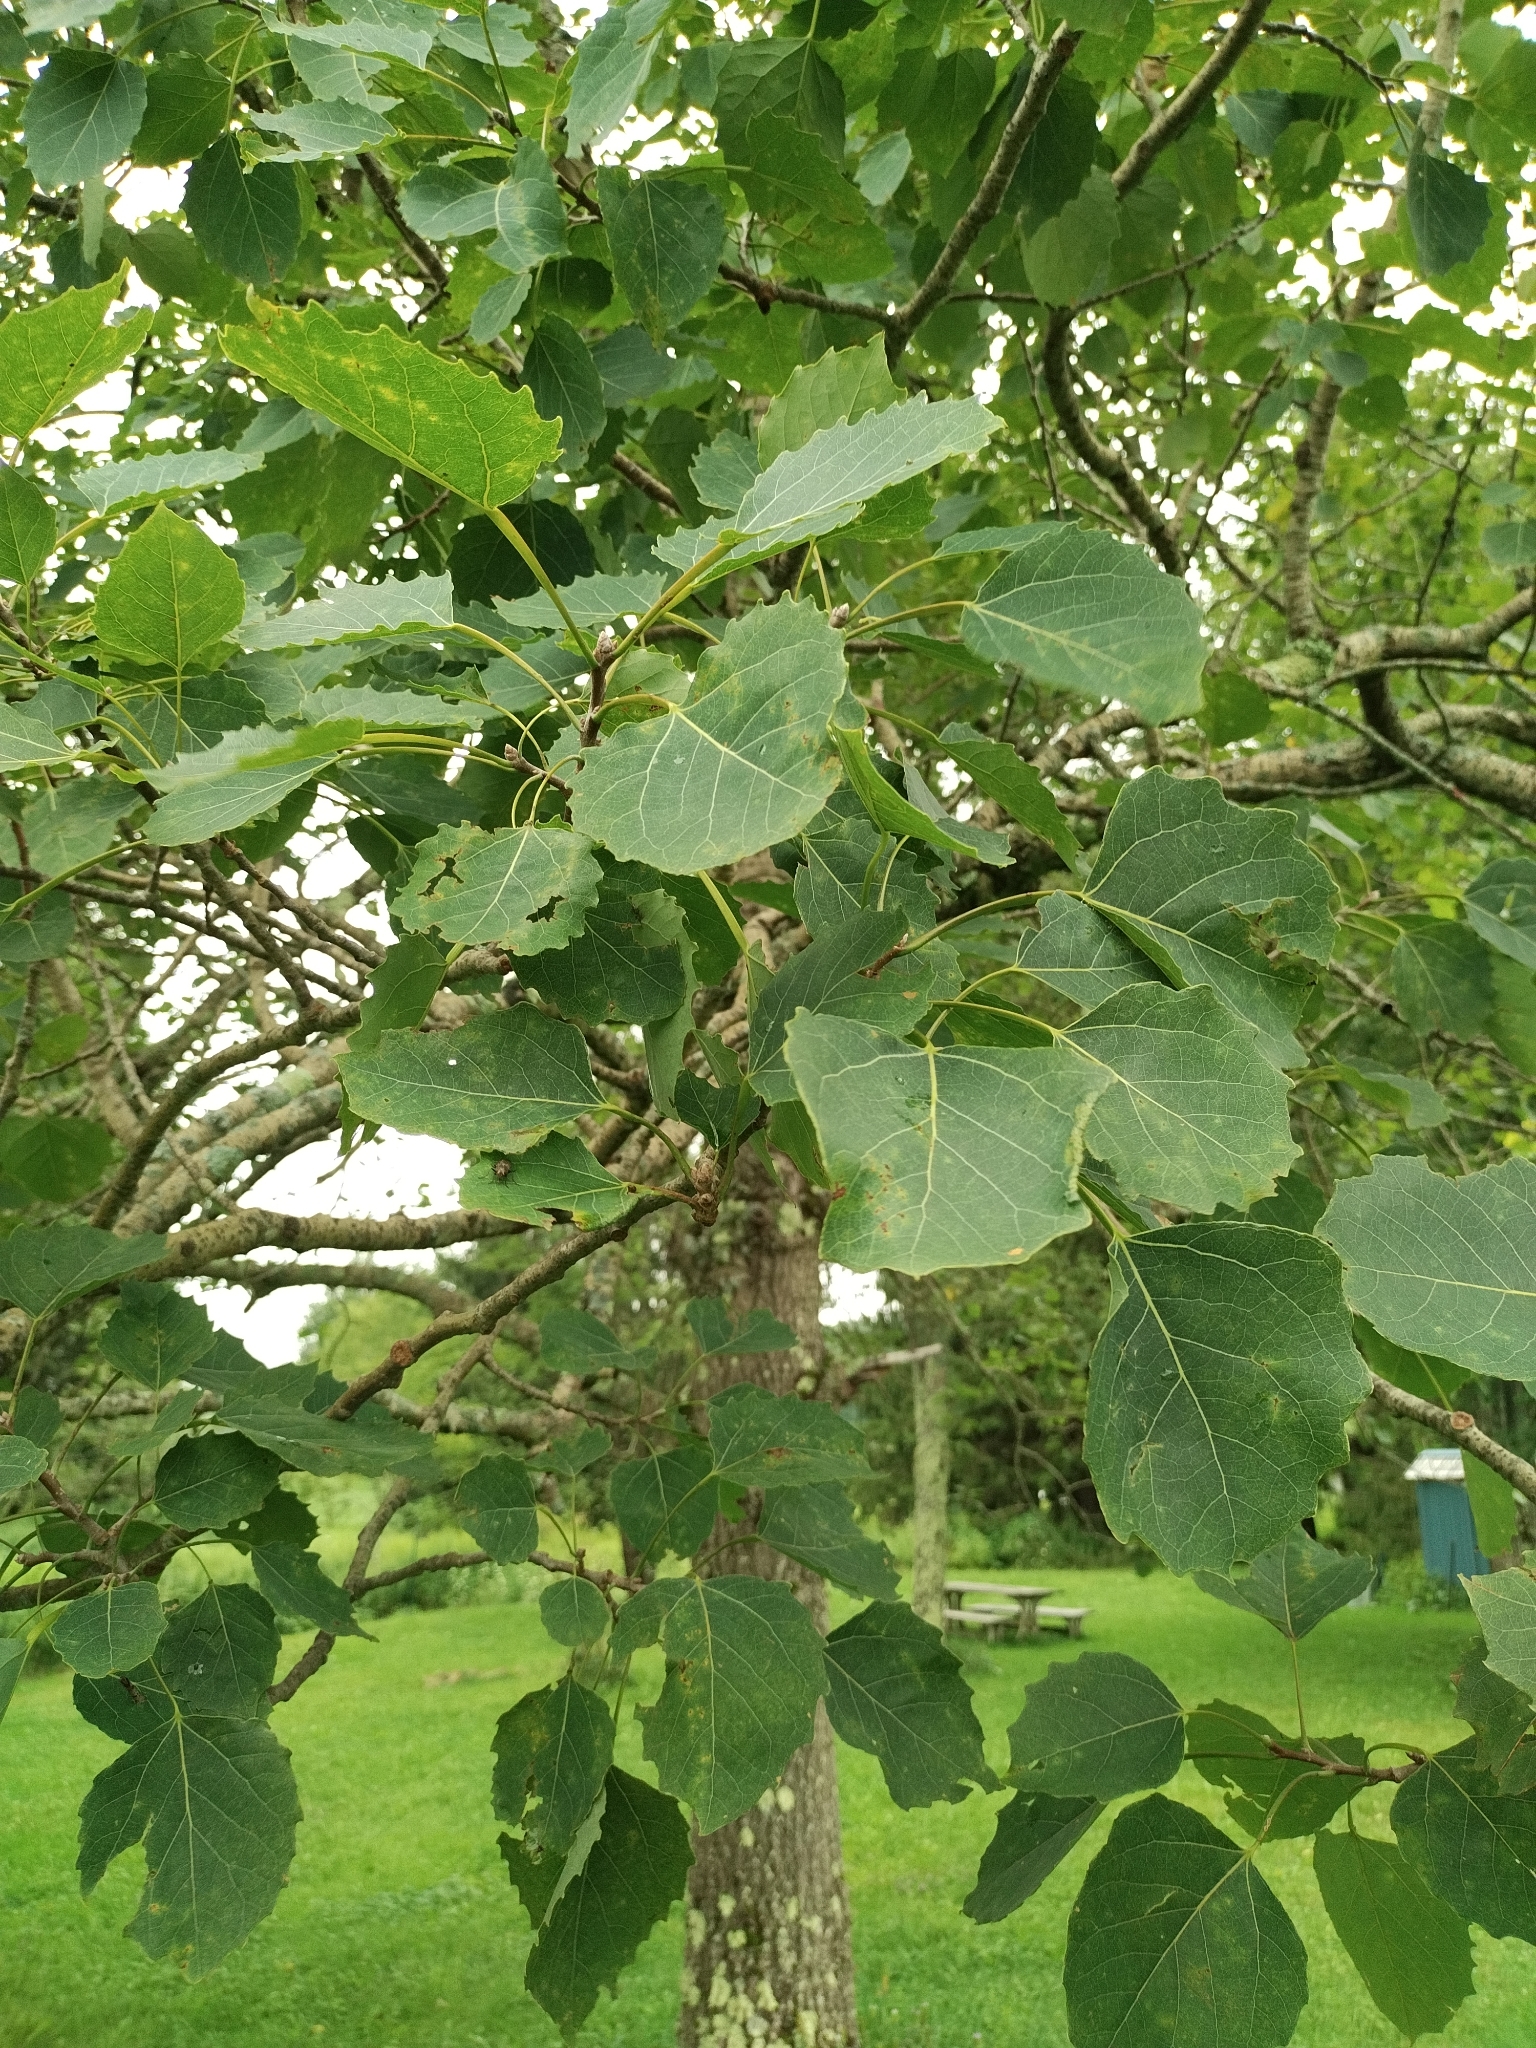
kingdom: Plantae
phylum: Tracheophyta
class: Magnoliopsida
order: Malpighiales
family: Salicaceae
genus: Populus
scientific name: Populus grandidentata
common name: Bigtooth aspen
